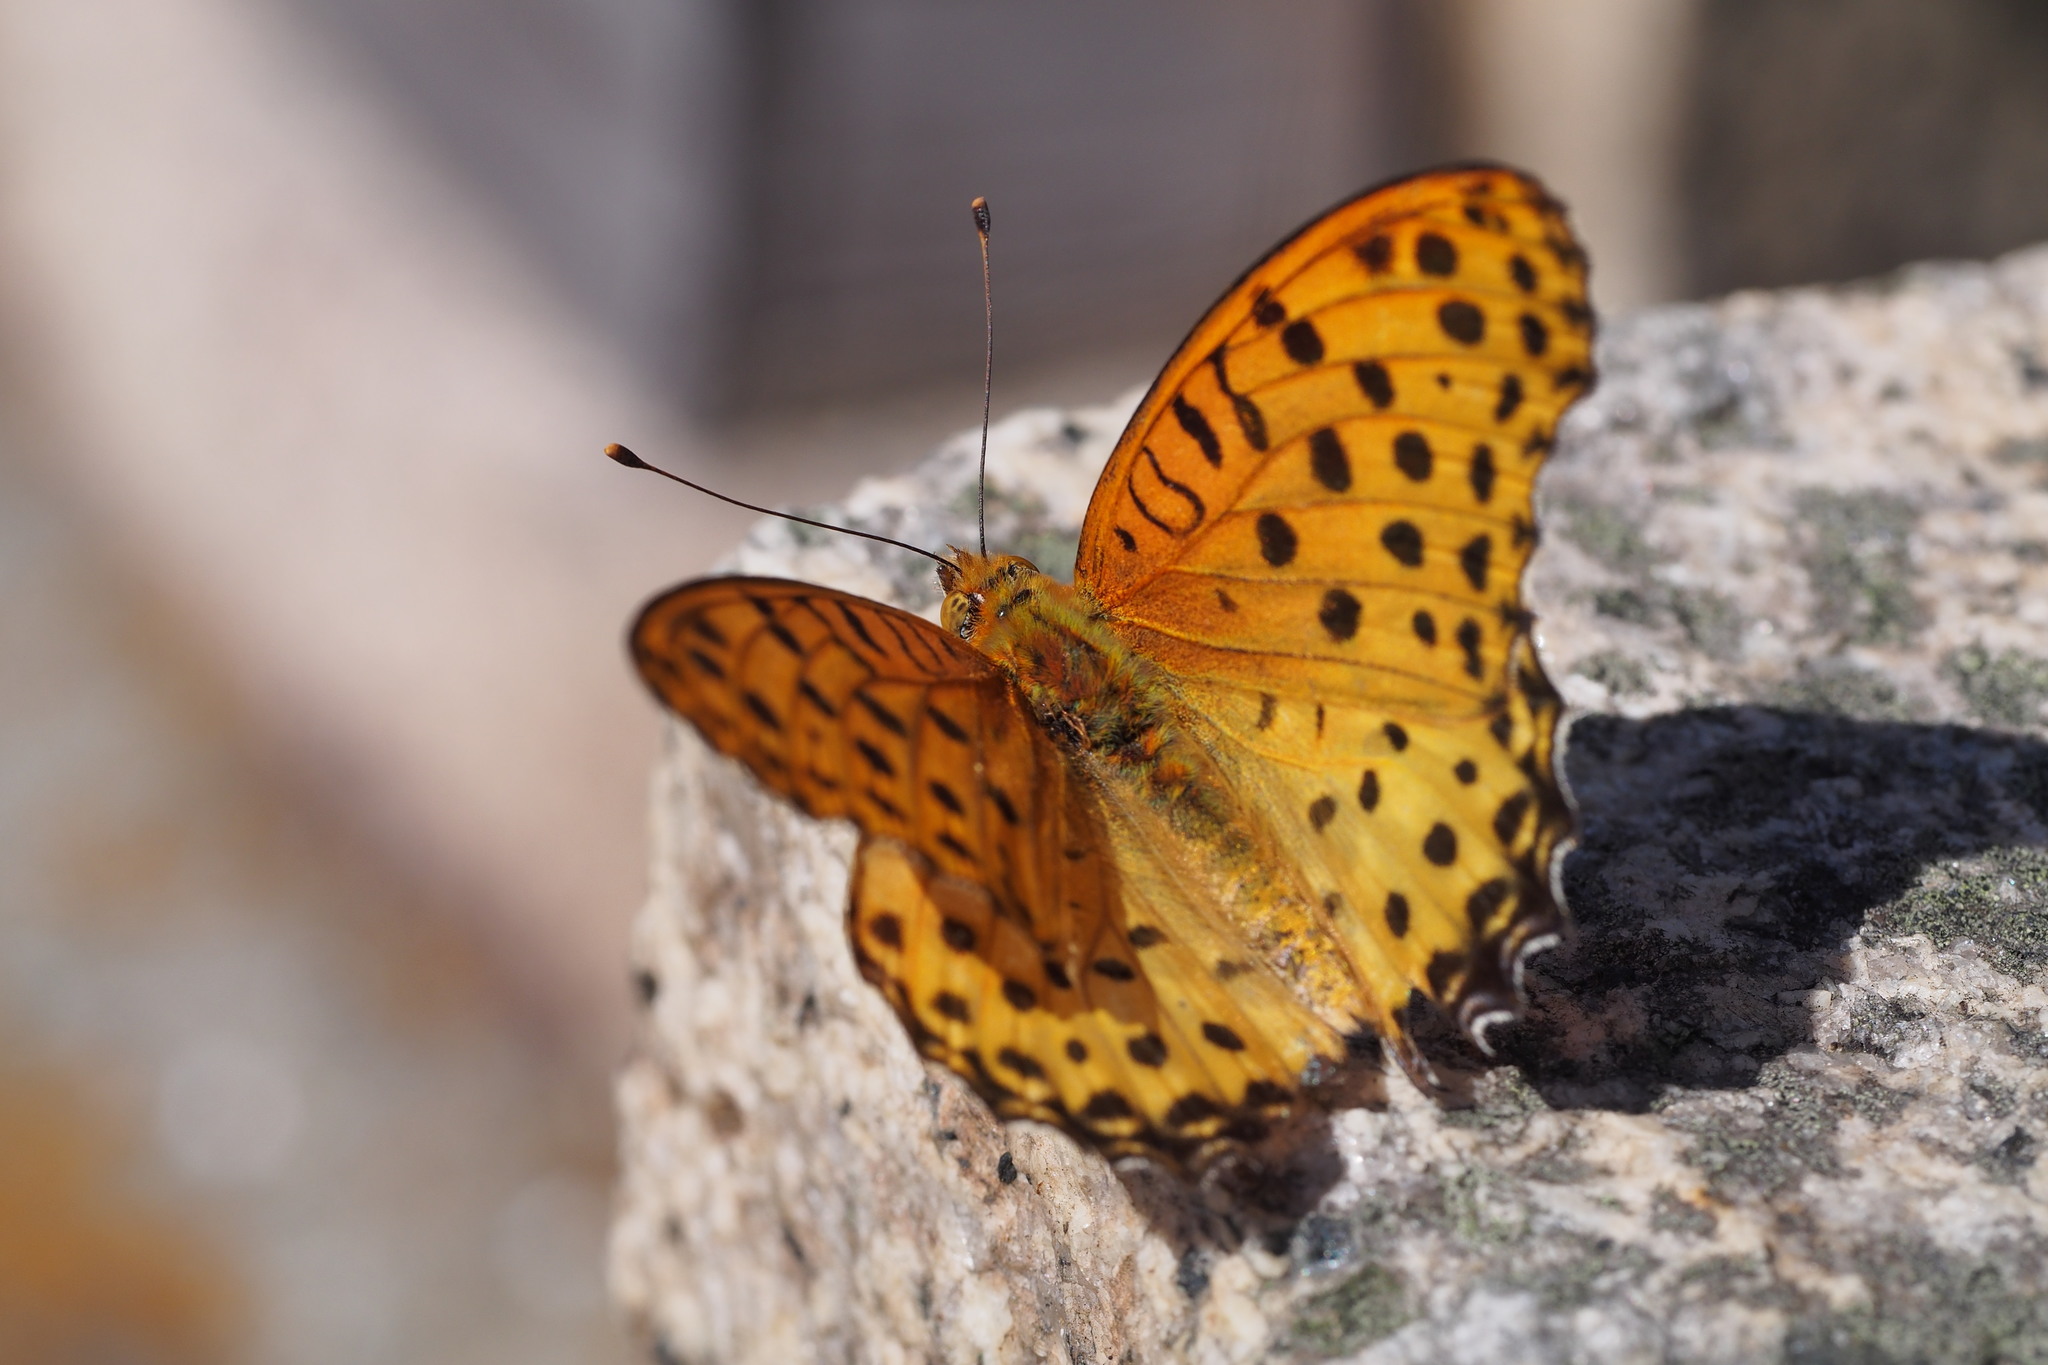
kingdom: Animalia
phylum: Arthropoda
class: Insecta
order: Lepidoptera
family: Nymphalidae
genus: Argynnis
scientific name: Argynnis hyperbius
